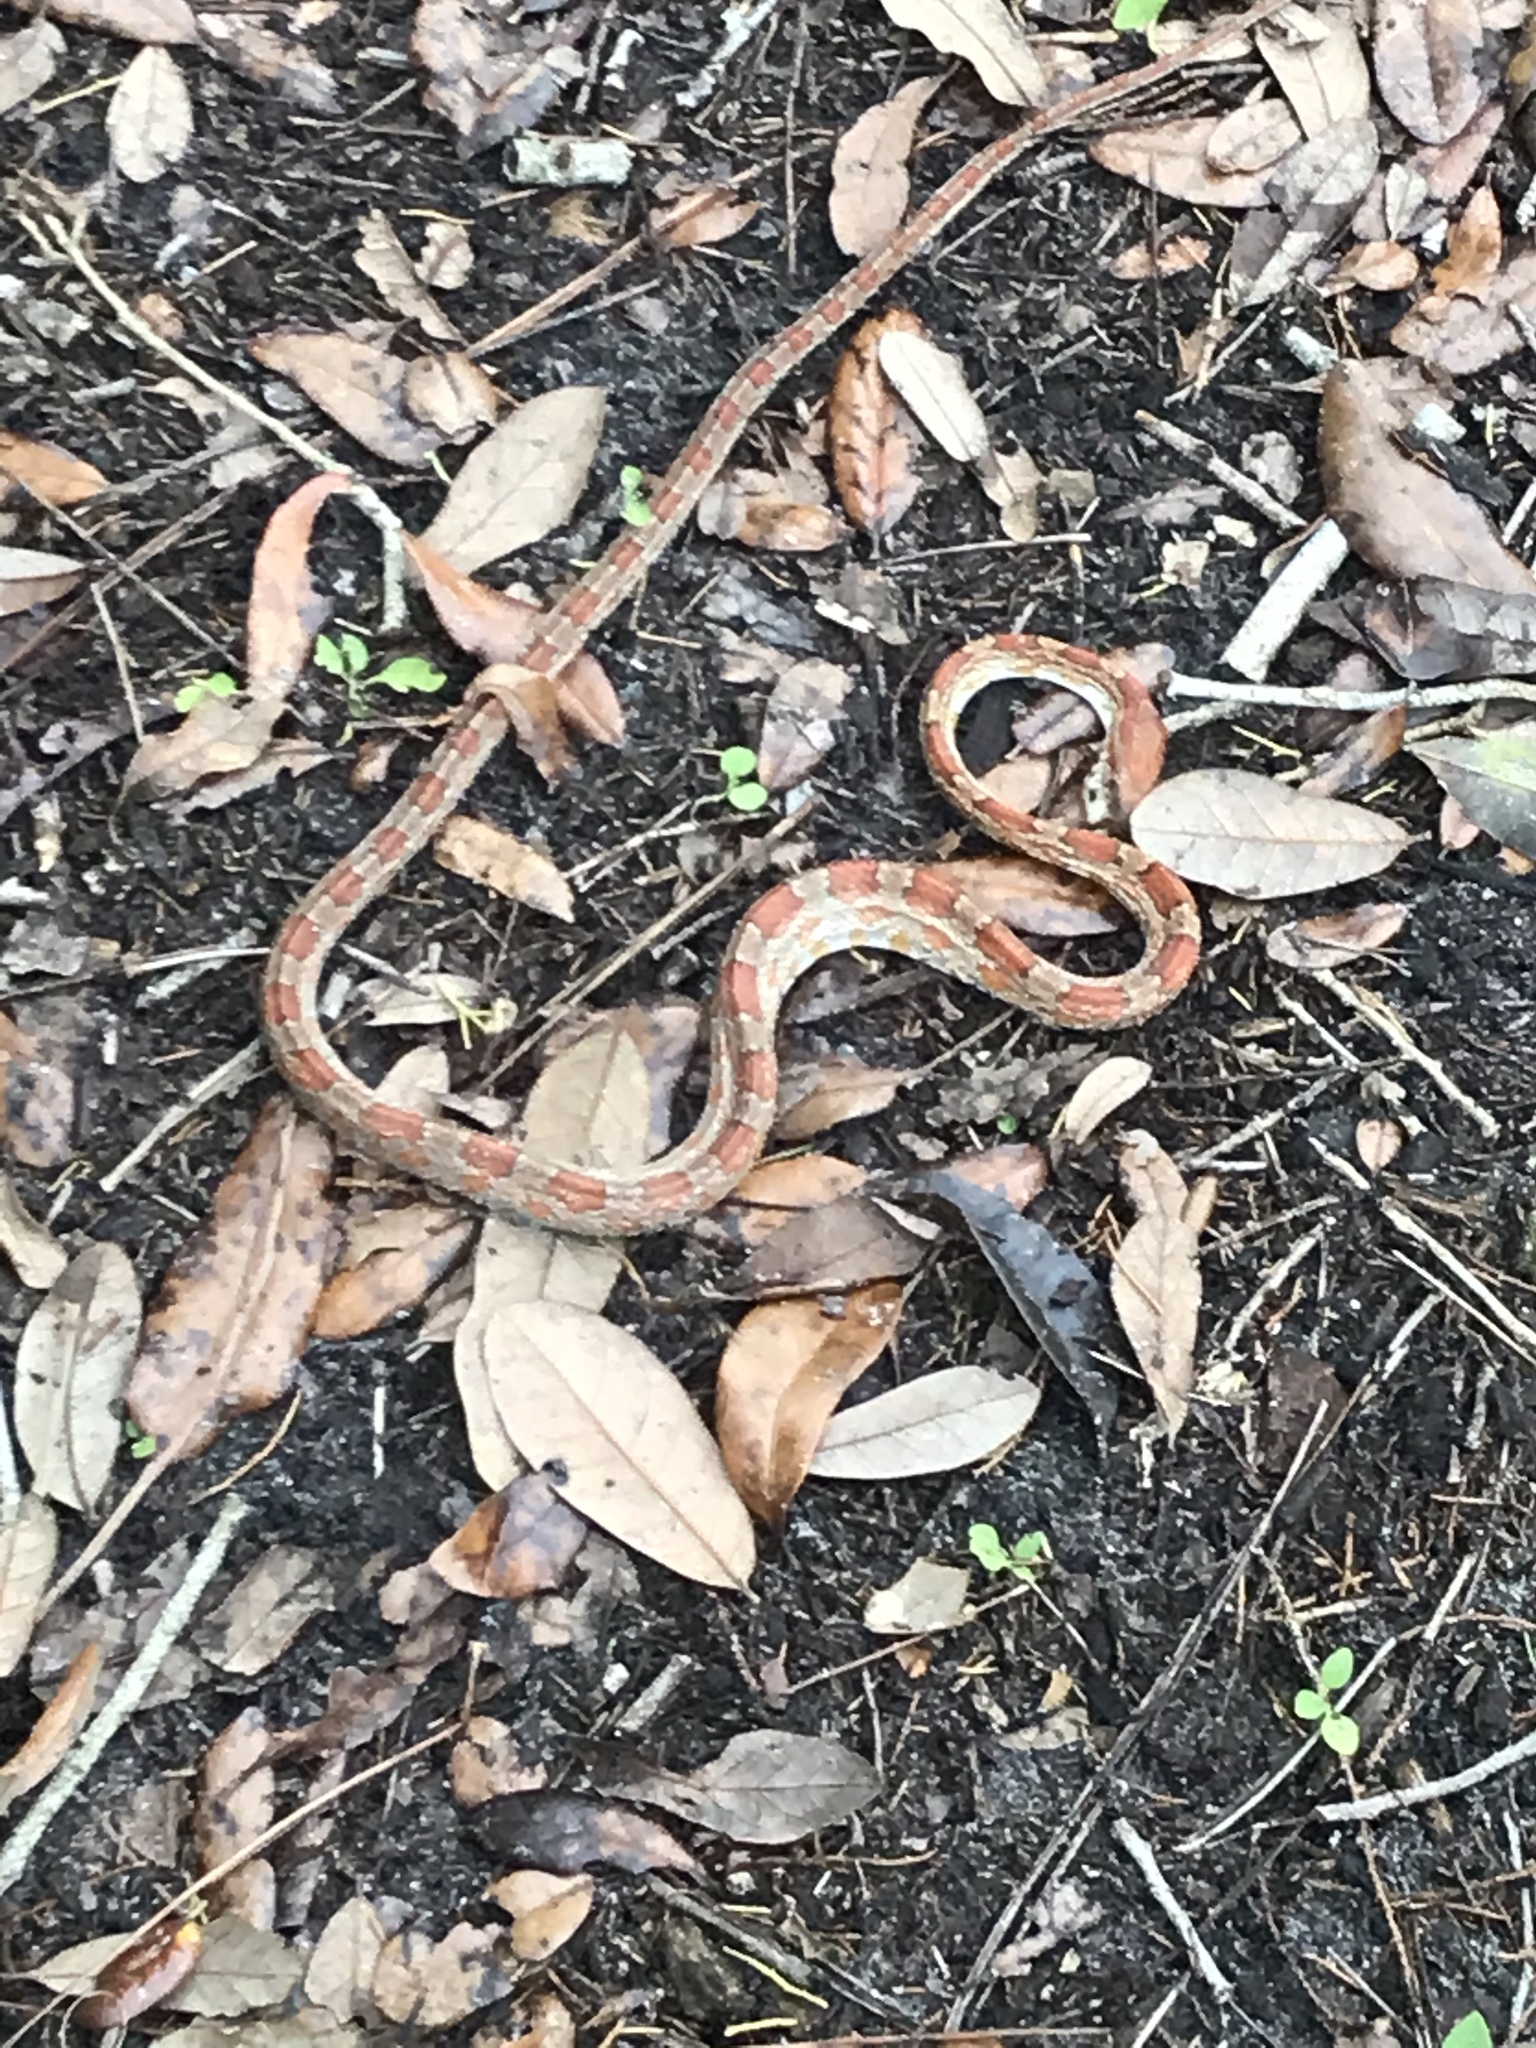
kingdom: Animalia
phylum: Chordata
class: Squamata
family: Colubridae
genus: Pantherophis
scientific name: Pantherophis guttatus
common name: Red cornsnake
